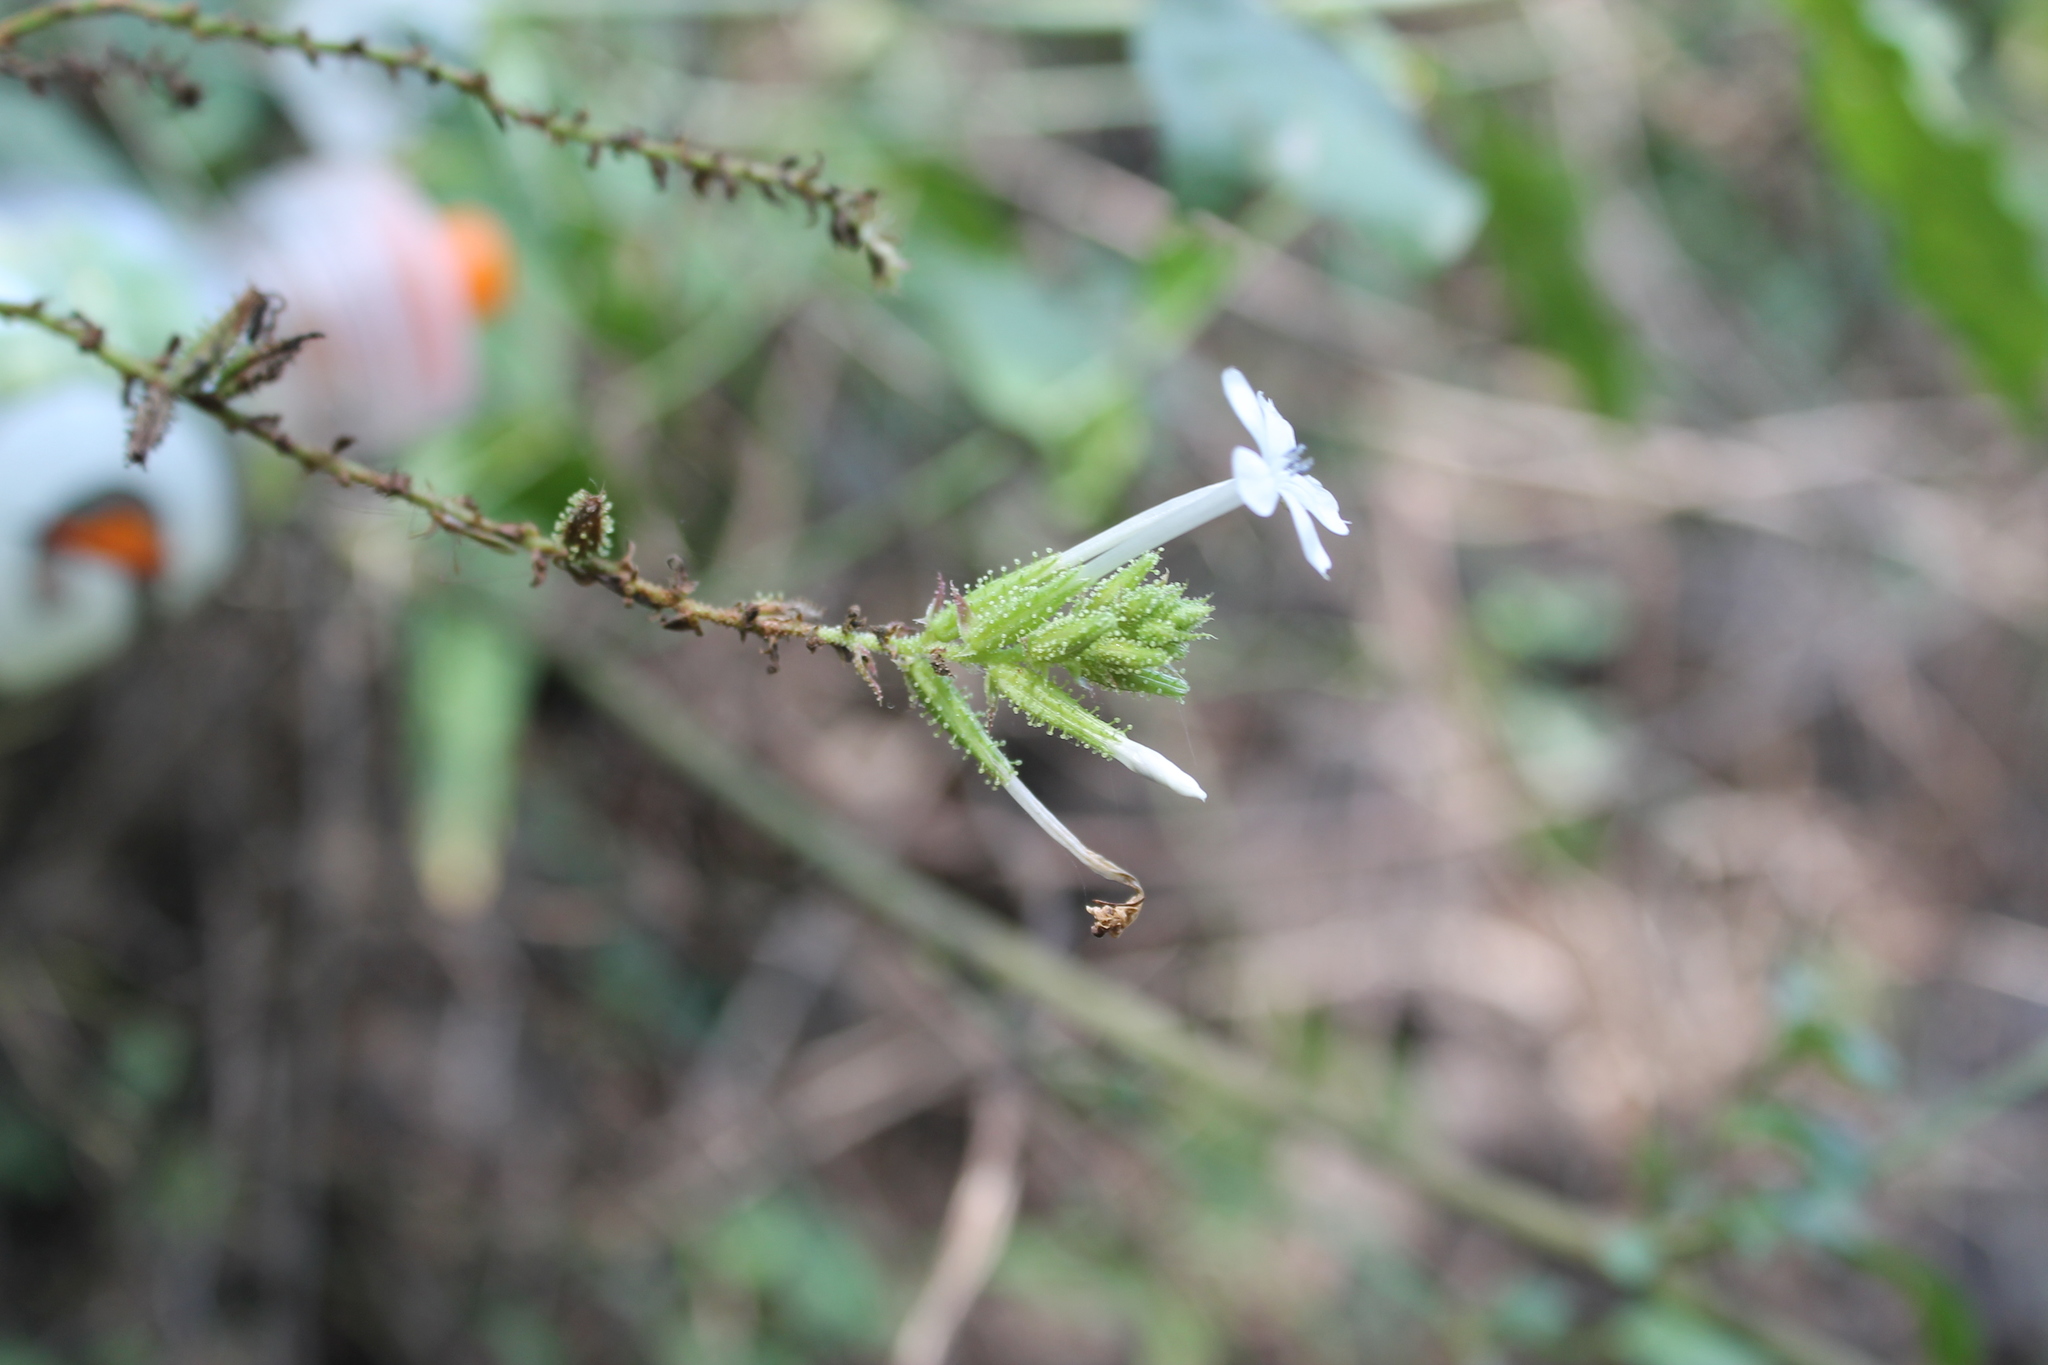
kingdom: Plantae
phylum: Tracheophyta
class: Magnoliopsida
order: Caryophyllales
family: Plumbaginaceae
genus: Plumbago
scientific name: Plumbago zeylanica
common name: Doctorbush
